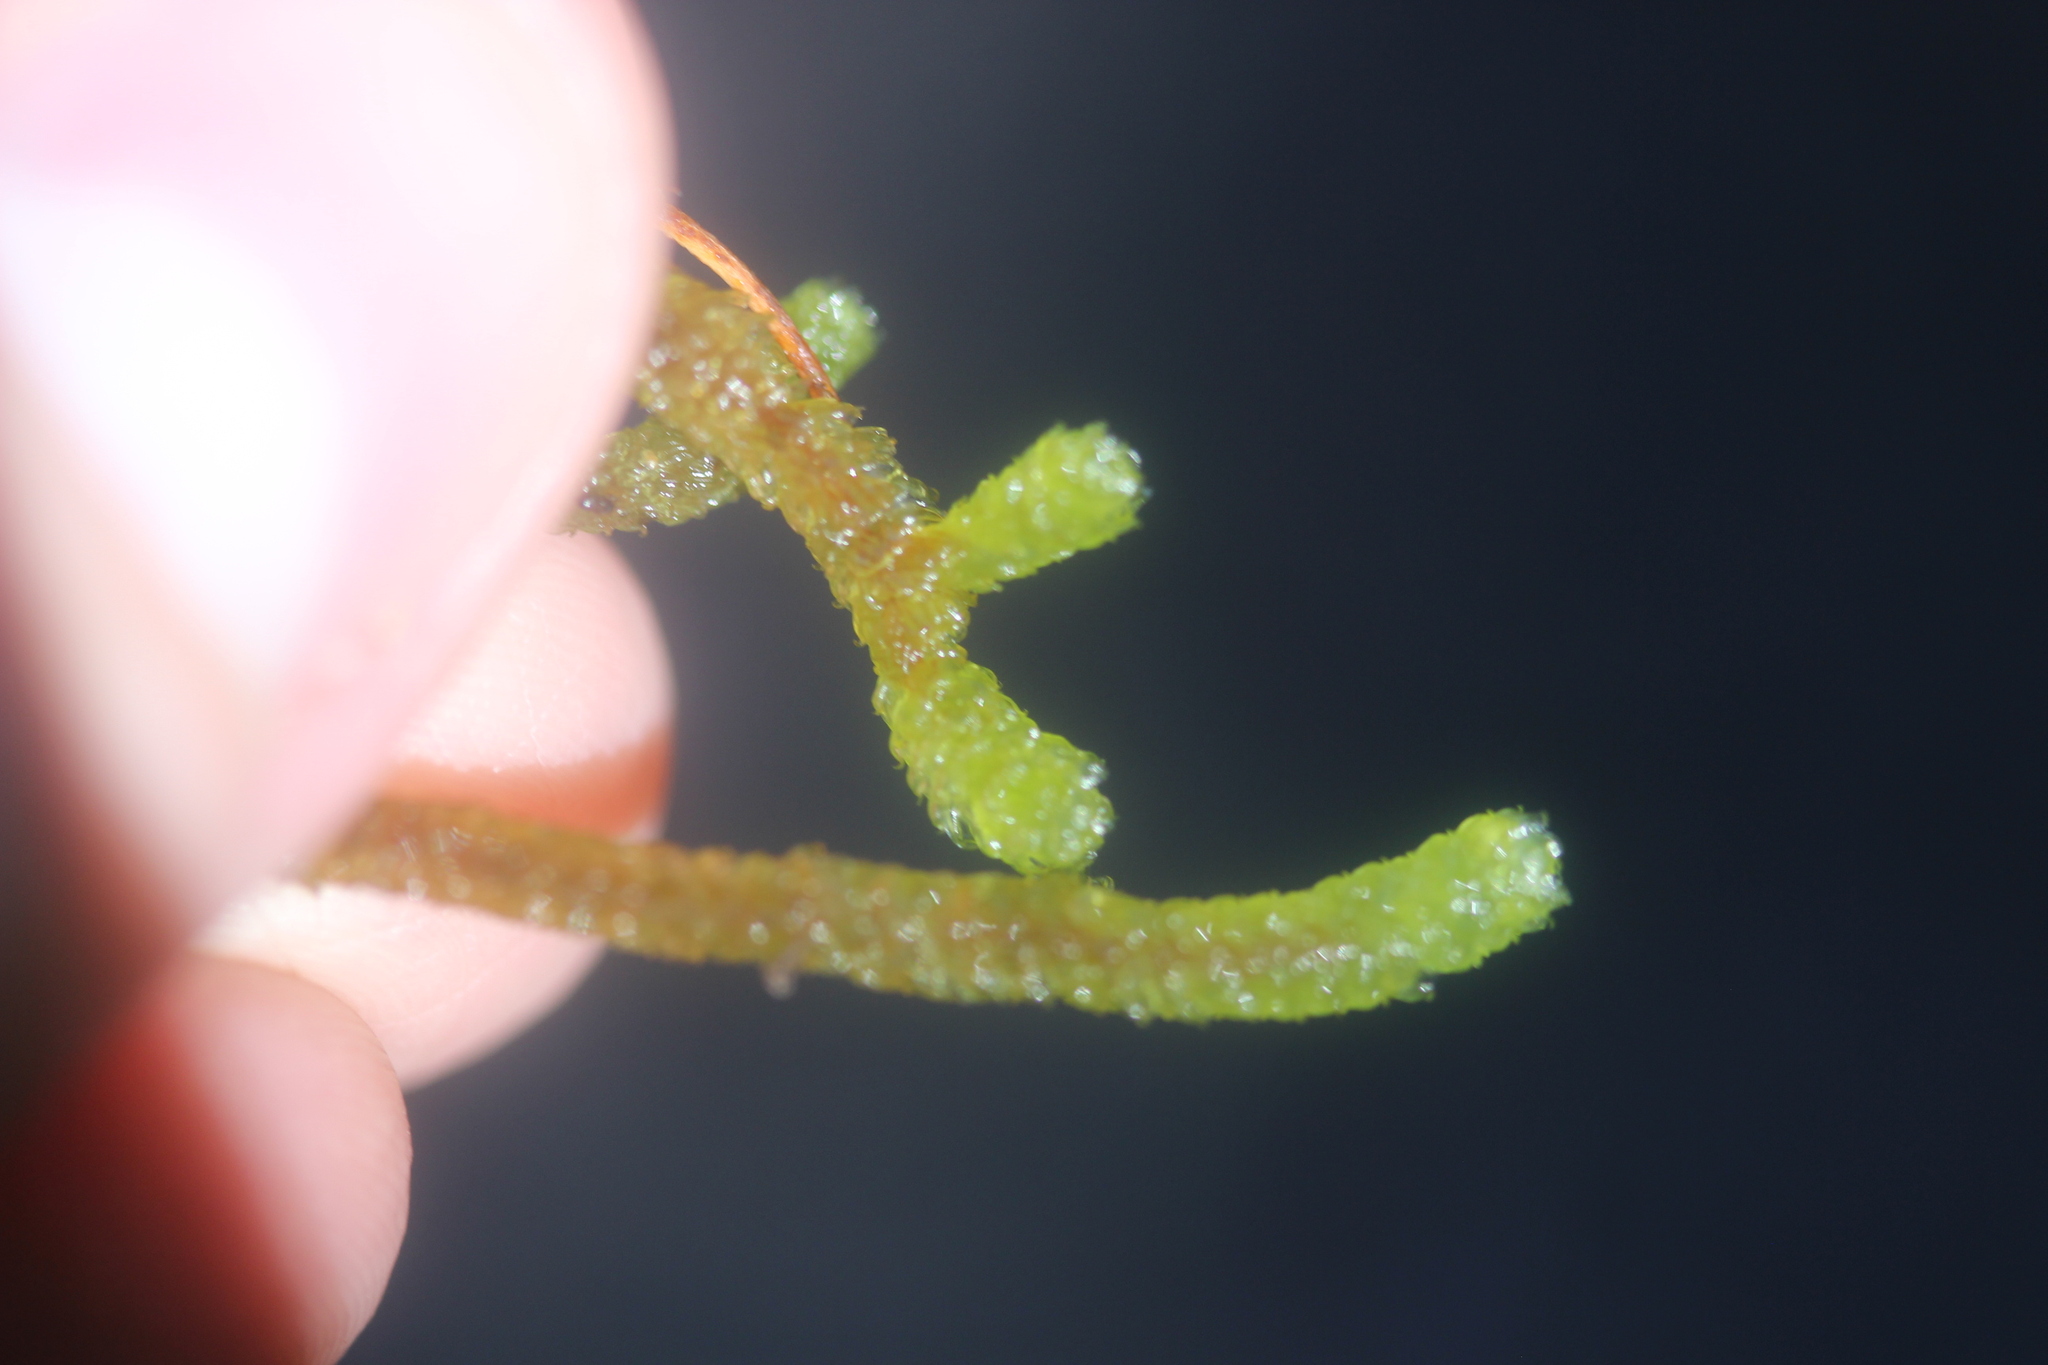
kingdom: Plantae
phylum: Bryophyta
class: Bryopsida
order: Ptychomniales
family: Ptychomniaceae
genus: Cladomnion
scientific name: Cladomnion ericoides
